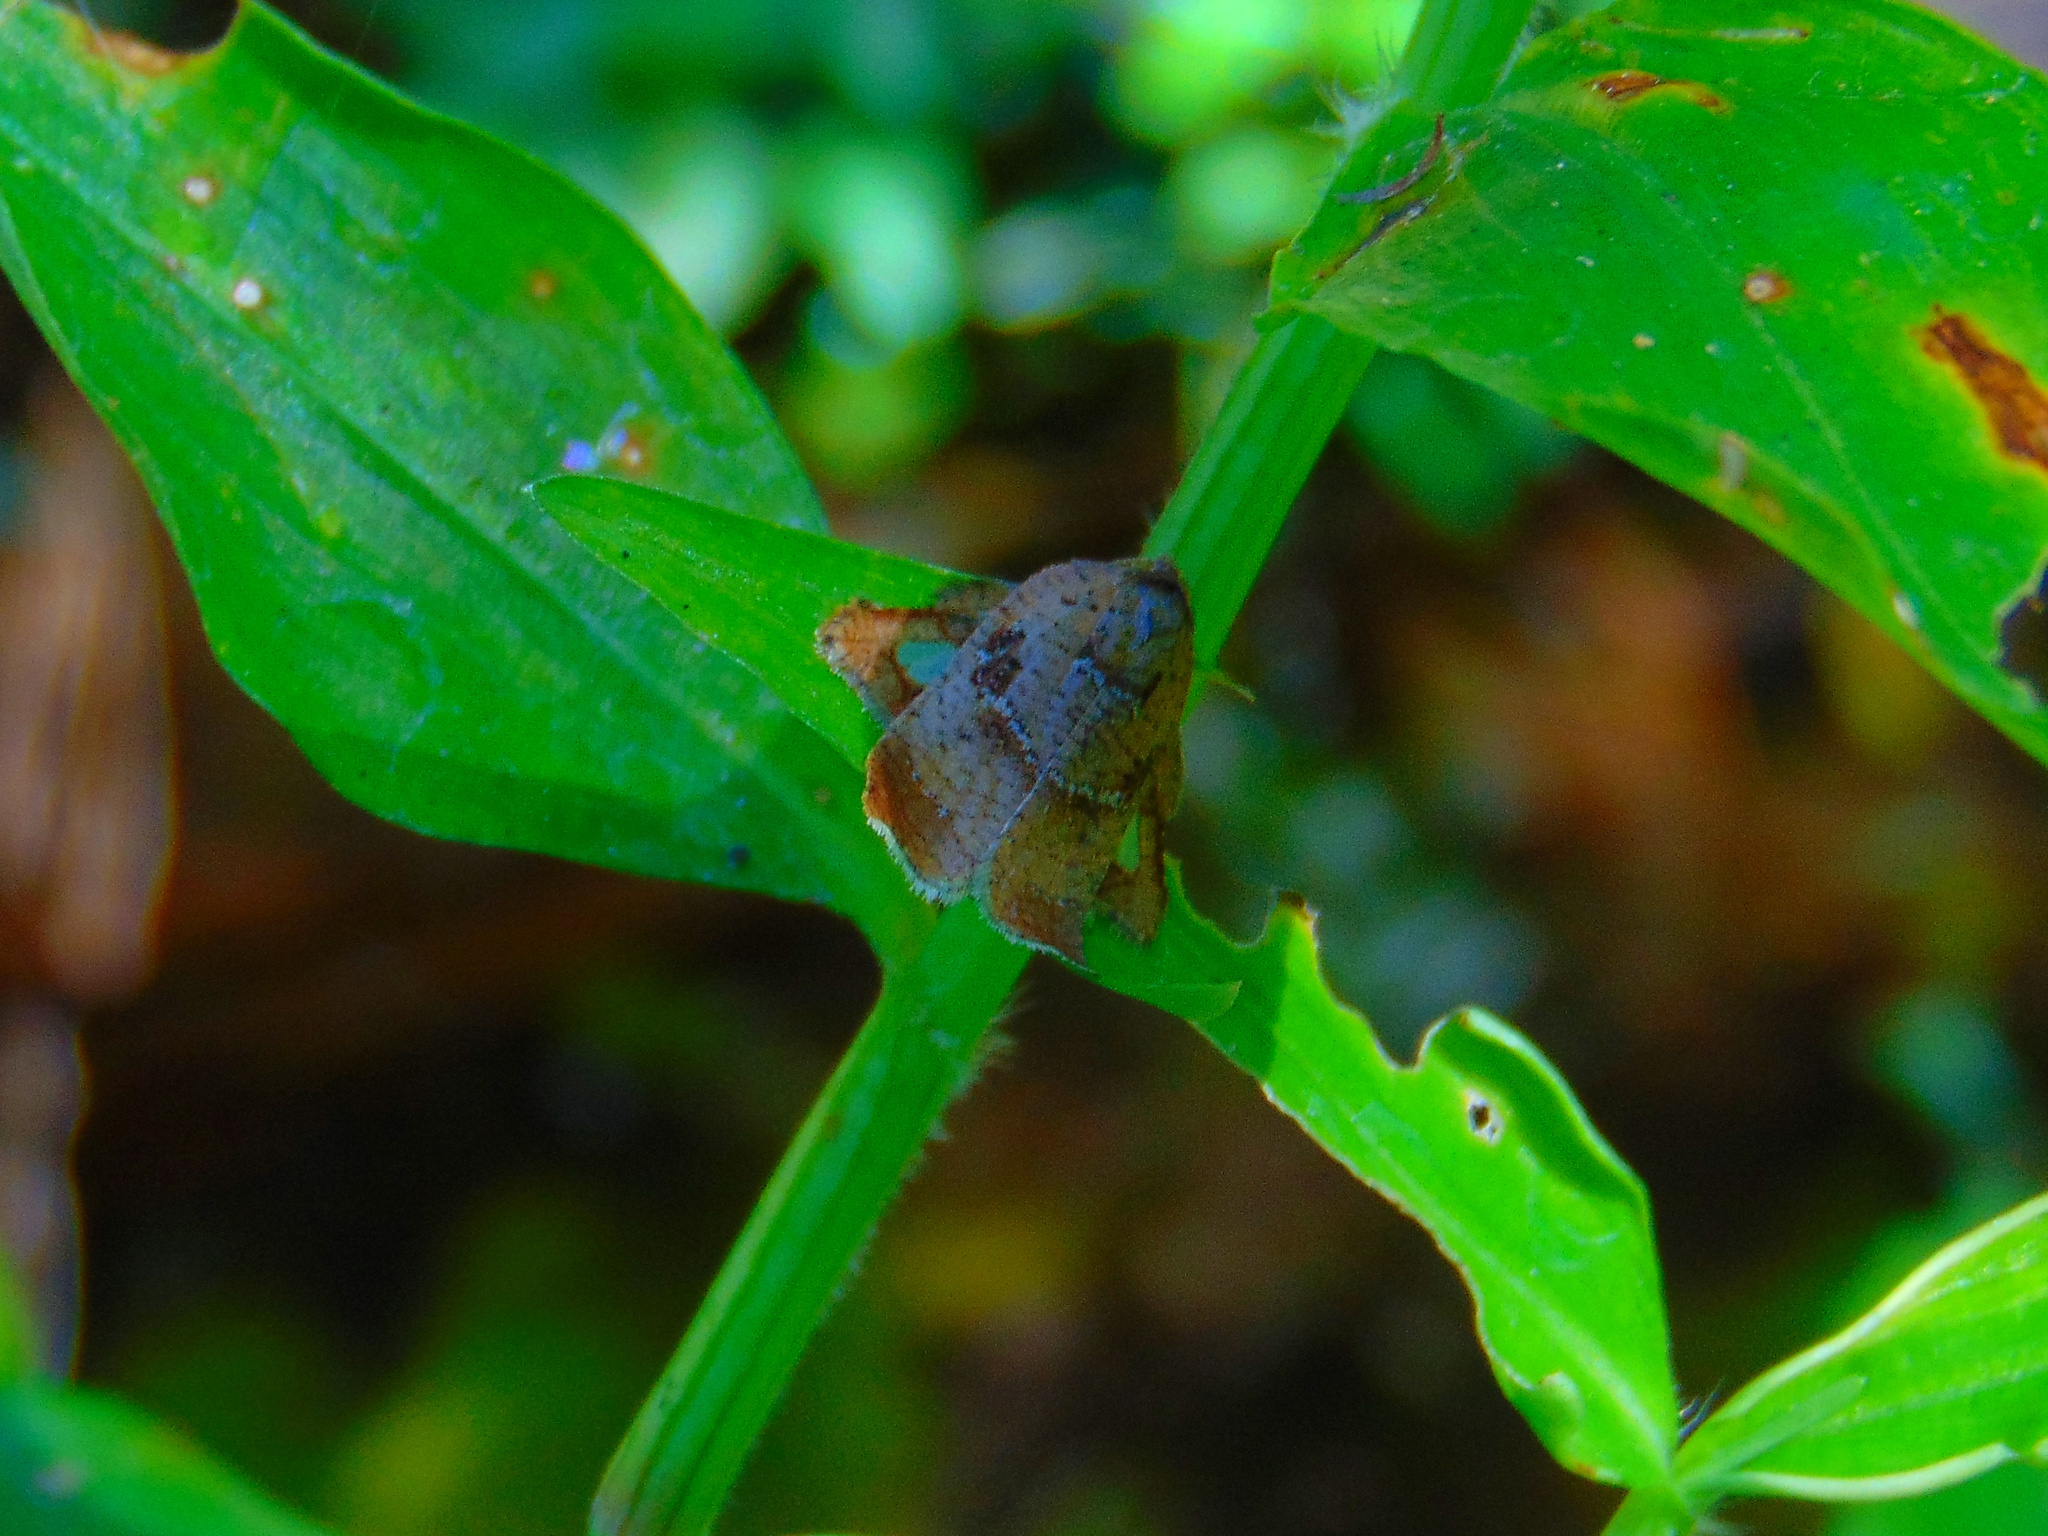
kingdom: Animalia
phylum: Arthropoda
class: Insecta
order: Lepidoptera
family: Tortricidae
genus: Amorbia
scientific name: Amorbia rectangularis
